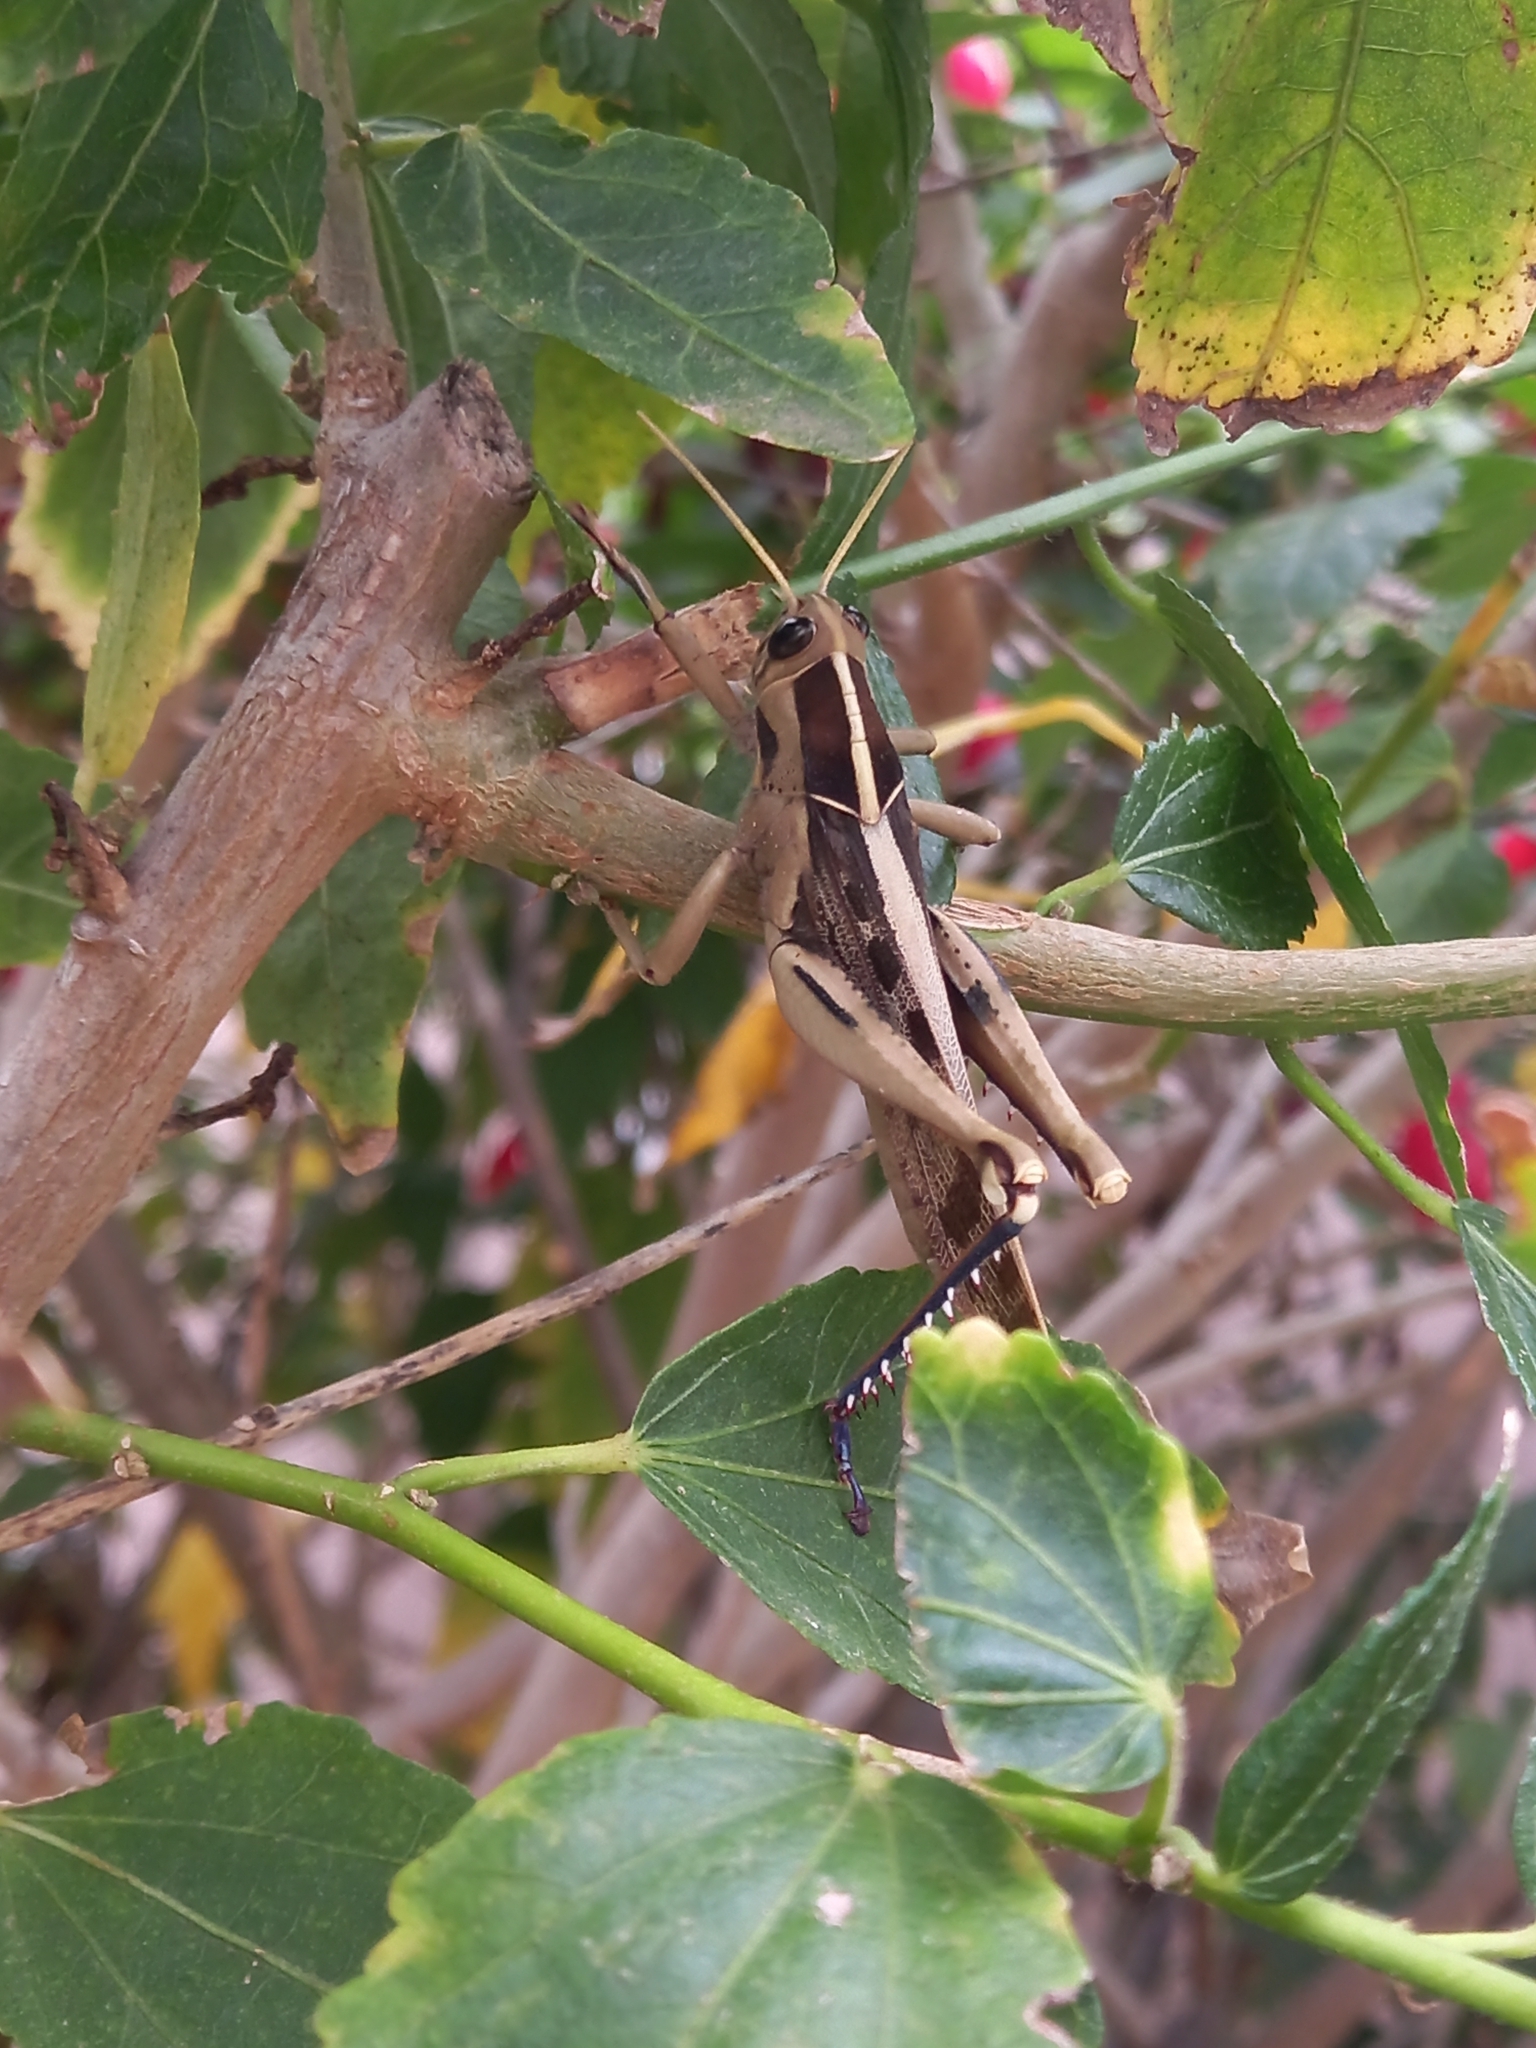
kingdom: Animalia
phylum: Arthropoda
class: Insecta
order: Orthoptera
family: Acrididae
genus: Acanthacris
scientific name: Acanthacris ruficornis
